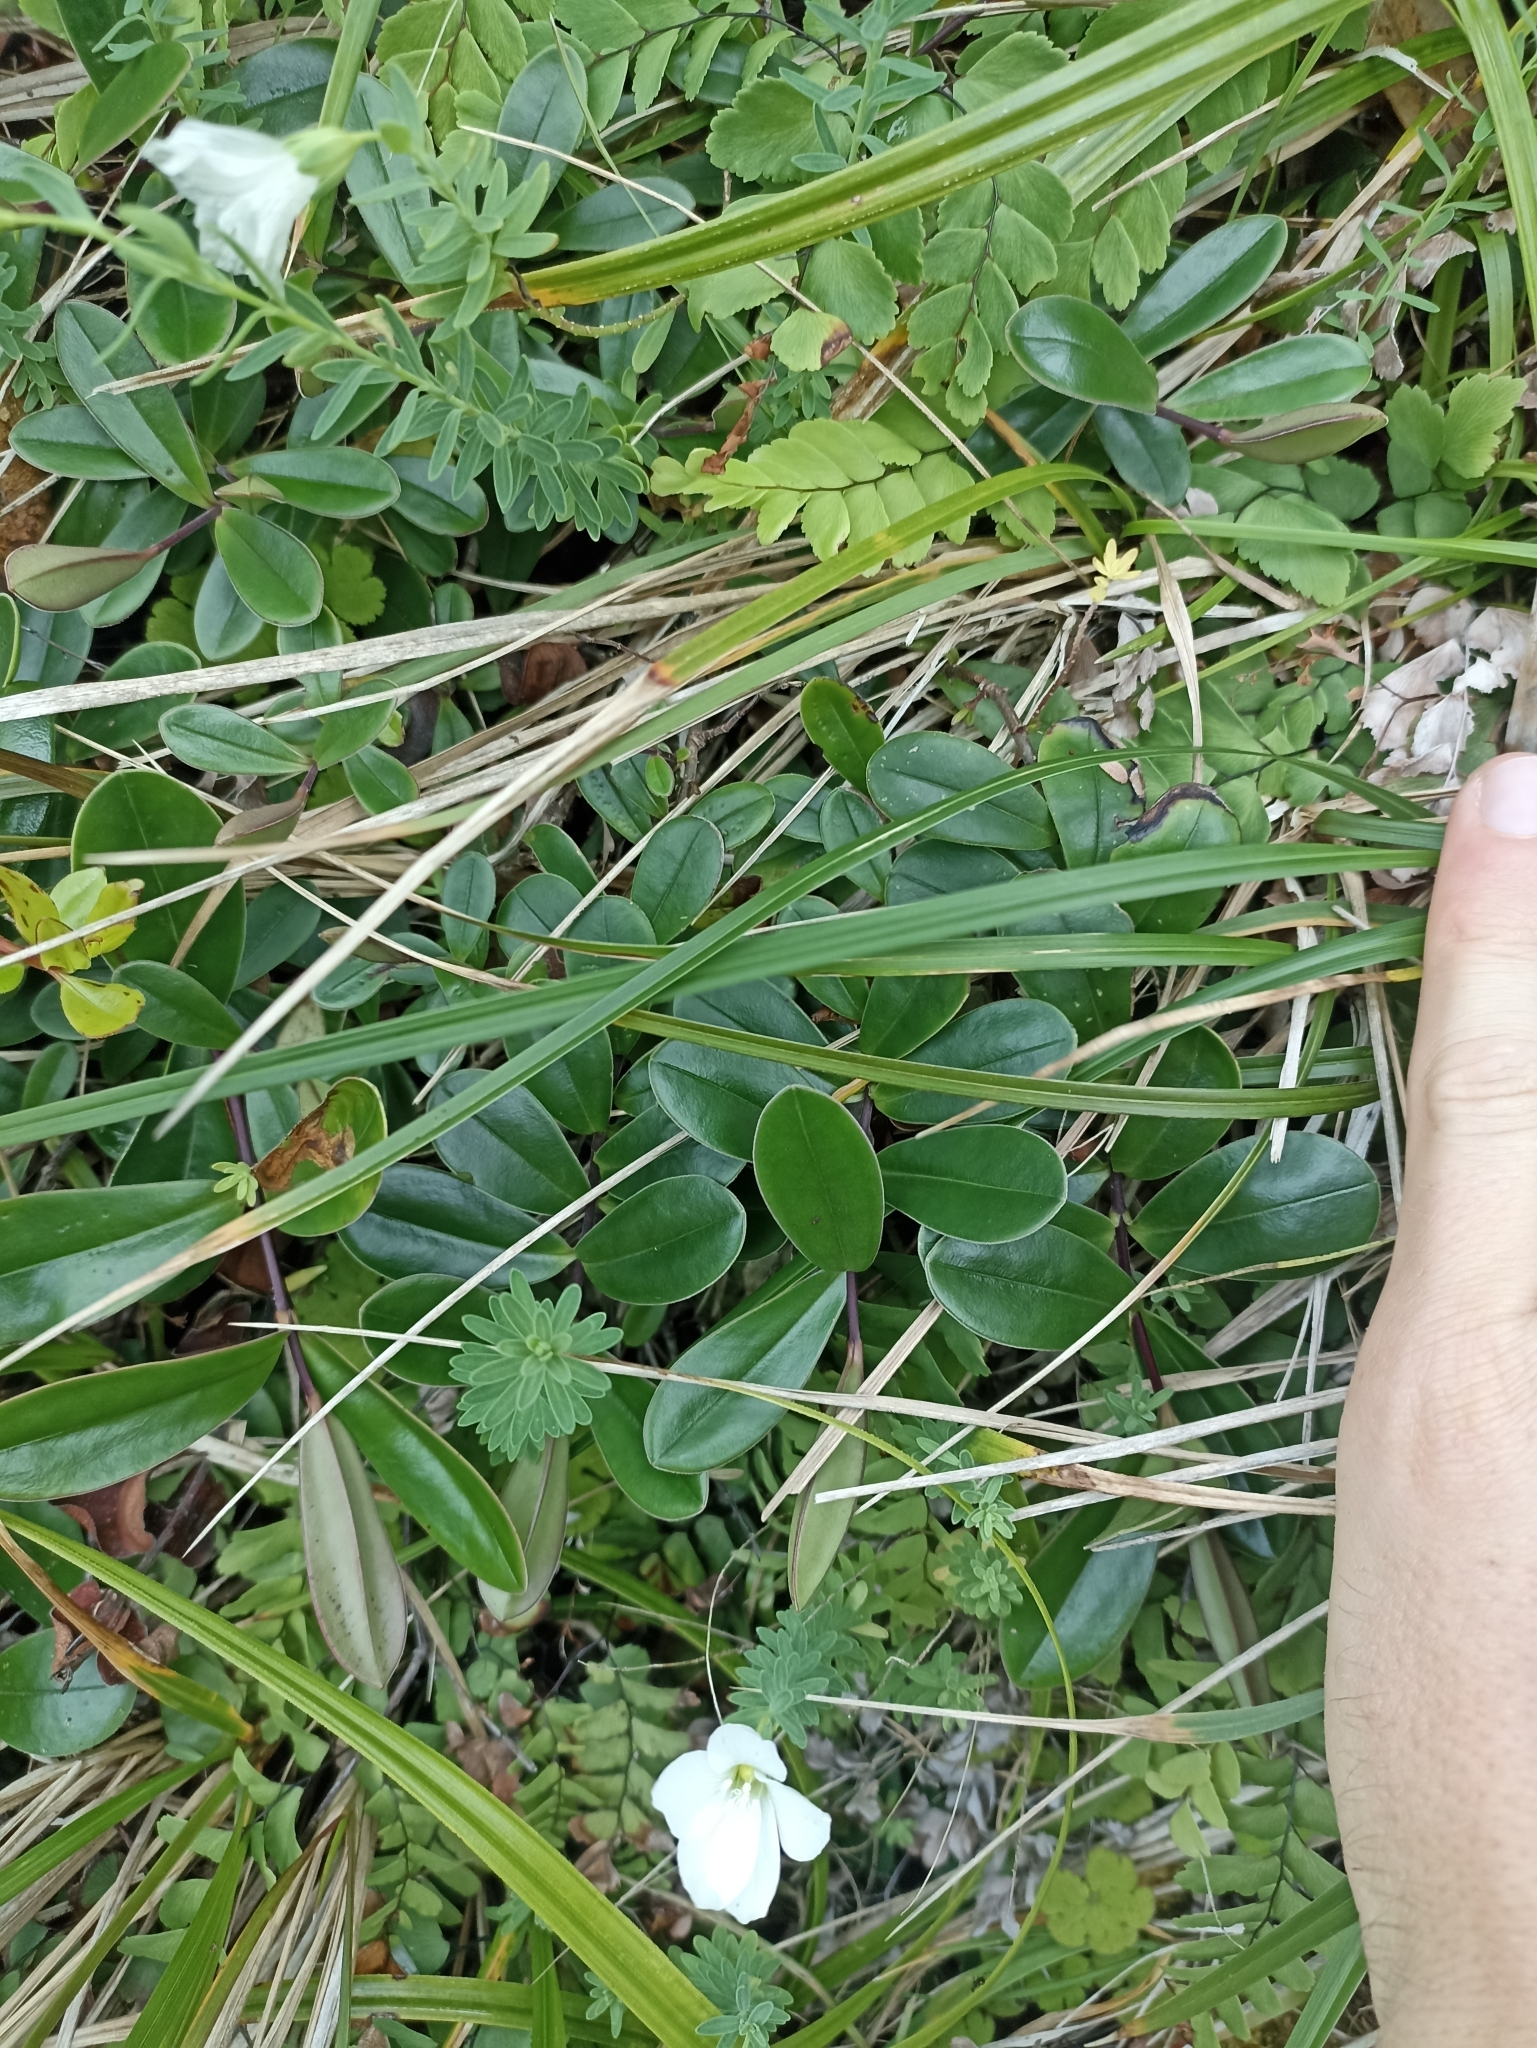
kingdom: Plantae
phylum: Tracheophyta
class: Magnoliopsida
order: Lamiales
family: Plantaginaceae
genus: Veronica
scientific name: Veronica obtusata
